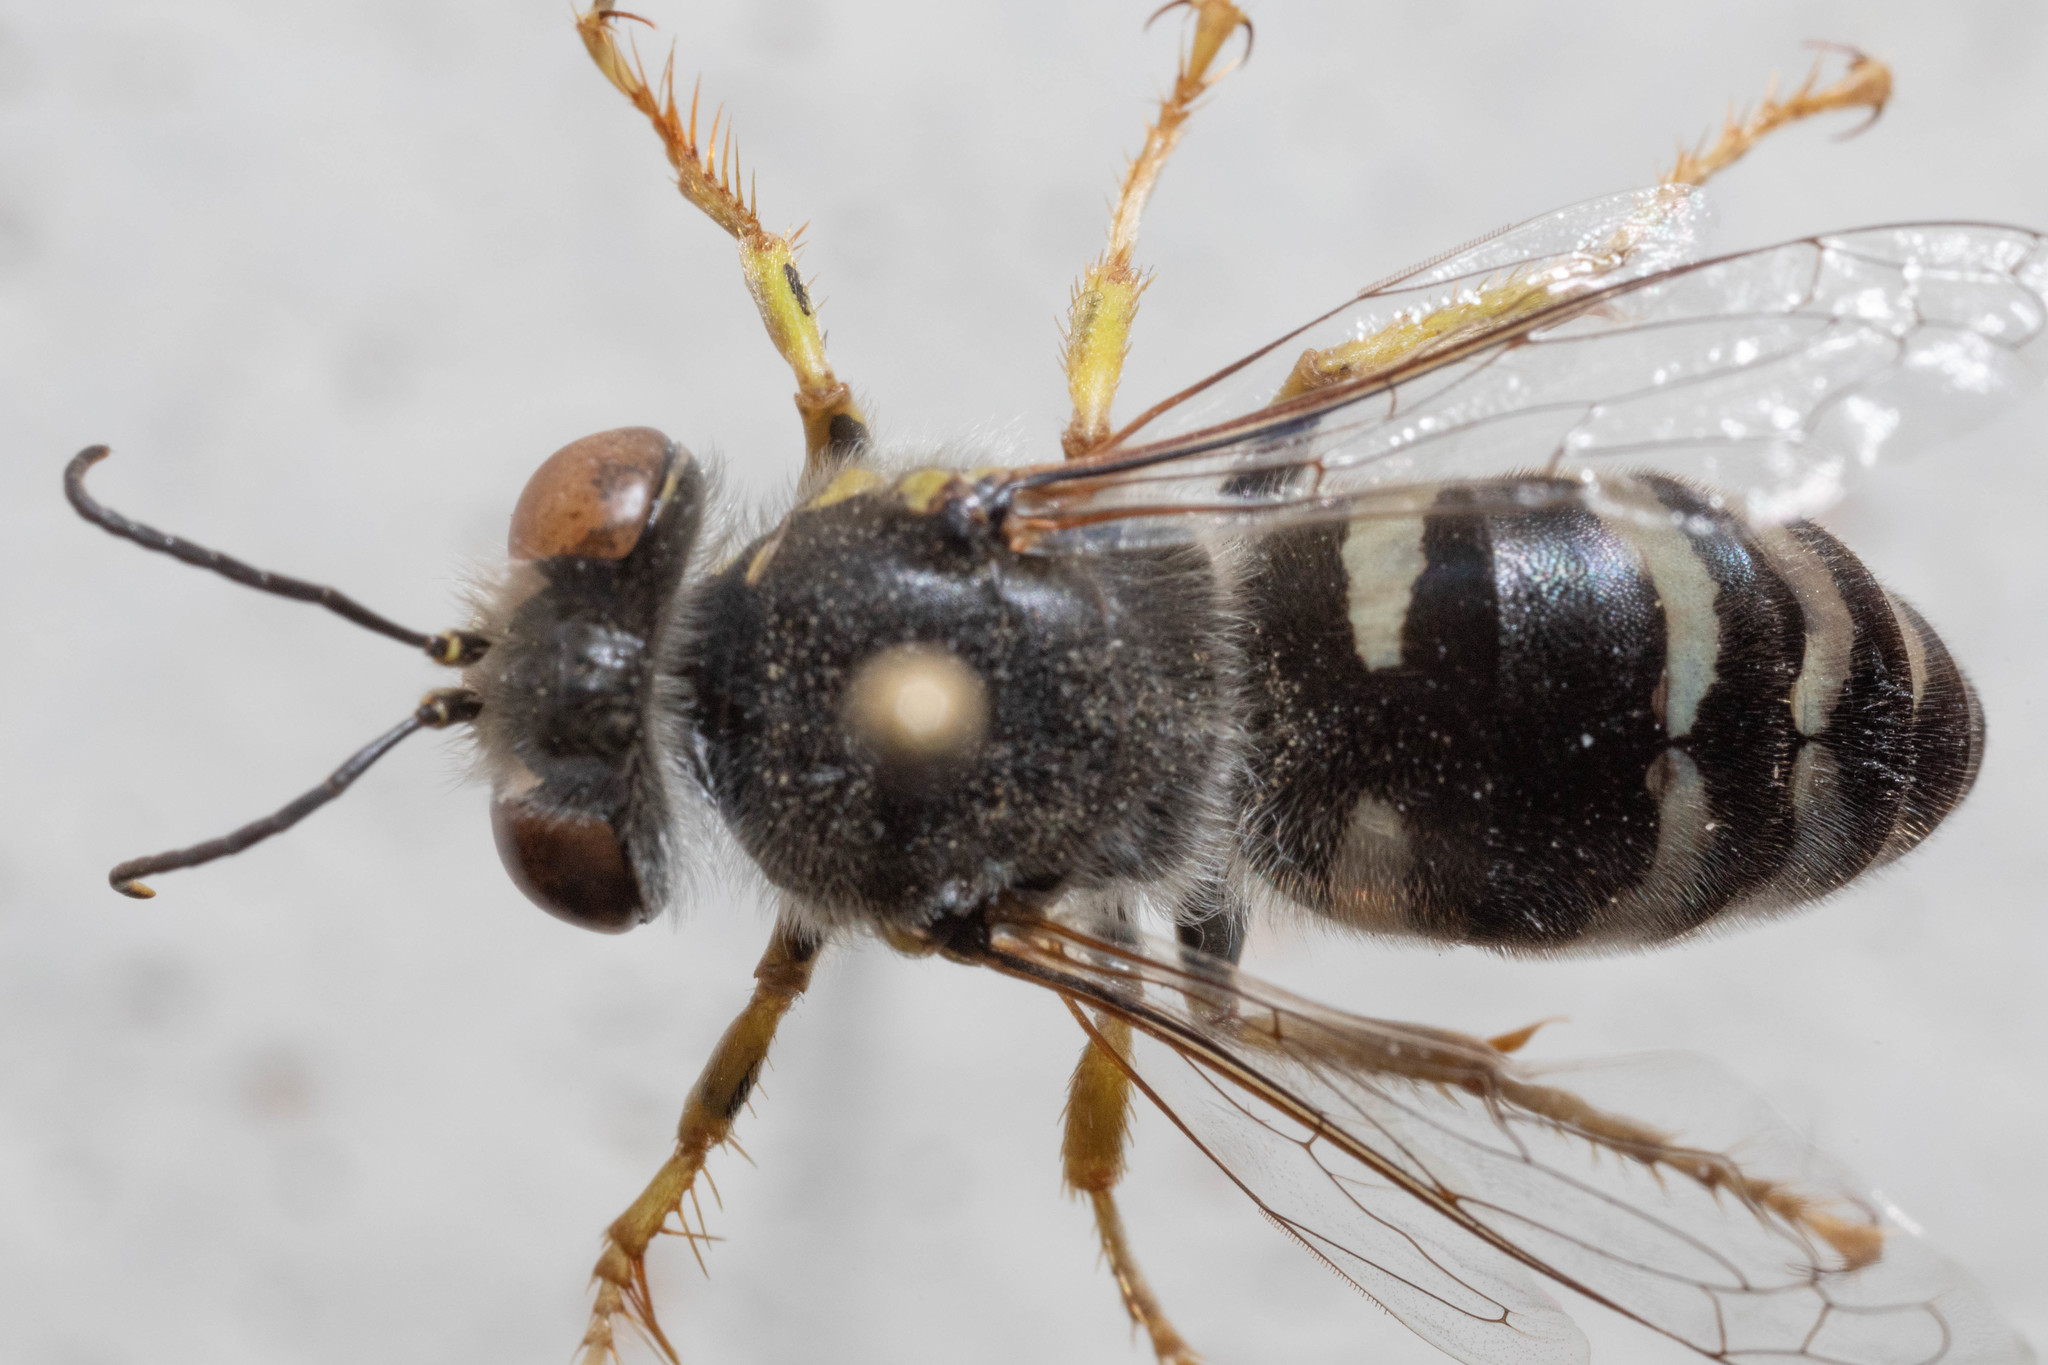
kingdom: Animalia
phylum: Arthropoda
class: Insecta
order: Hymenoptera
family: Crabronidae
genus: Bembix
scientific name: Bembix americana
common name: American sand wasp
